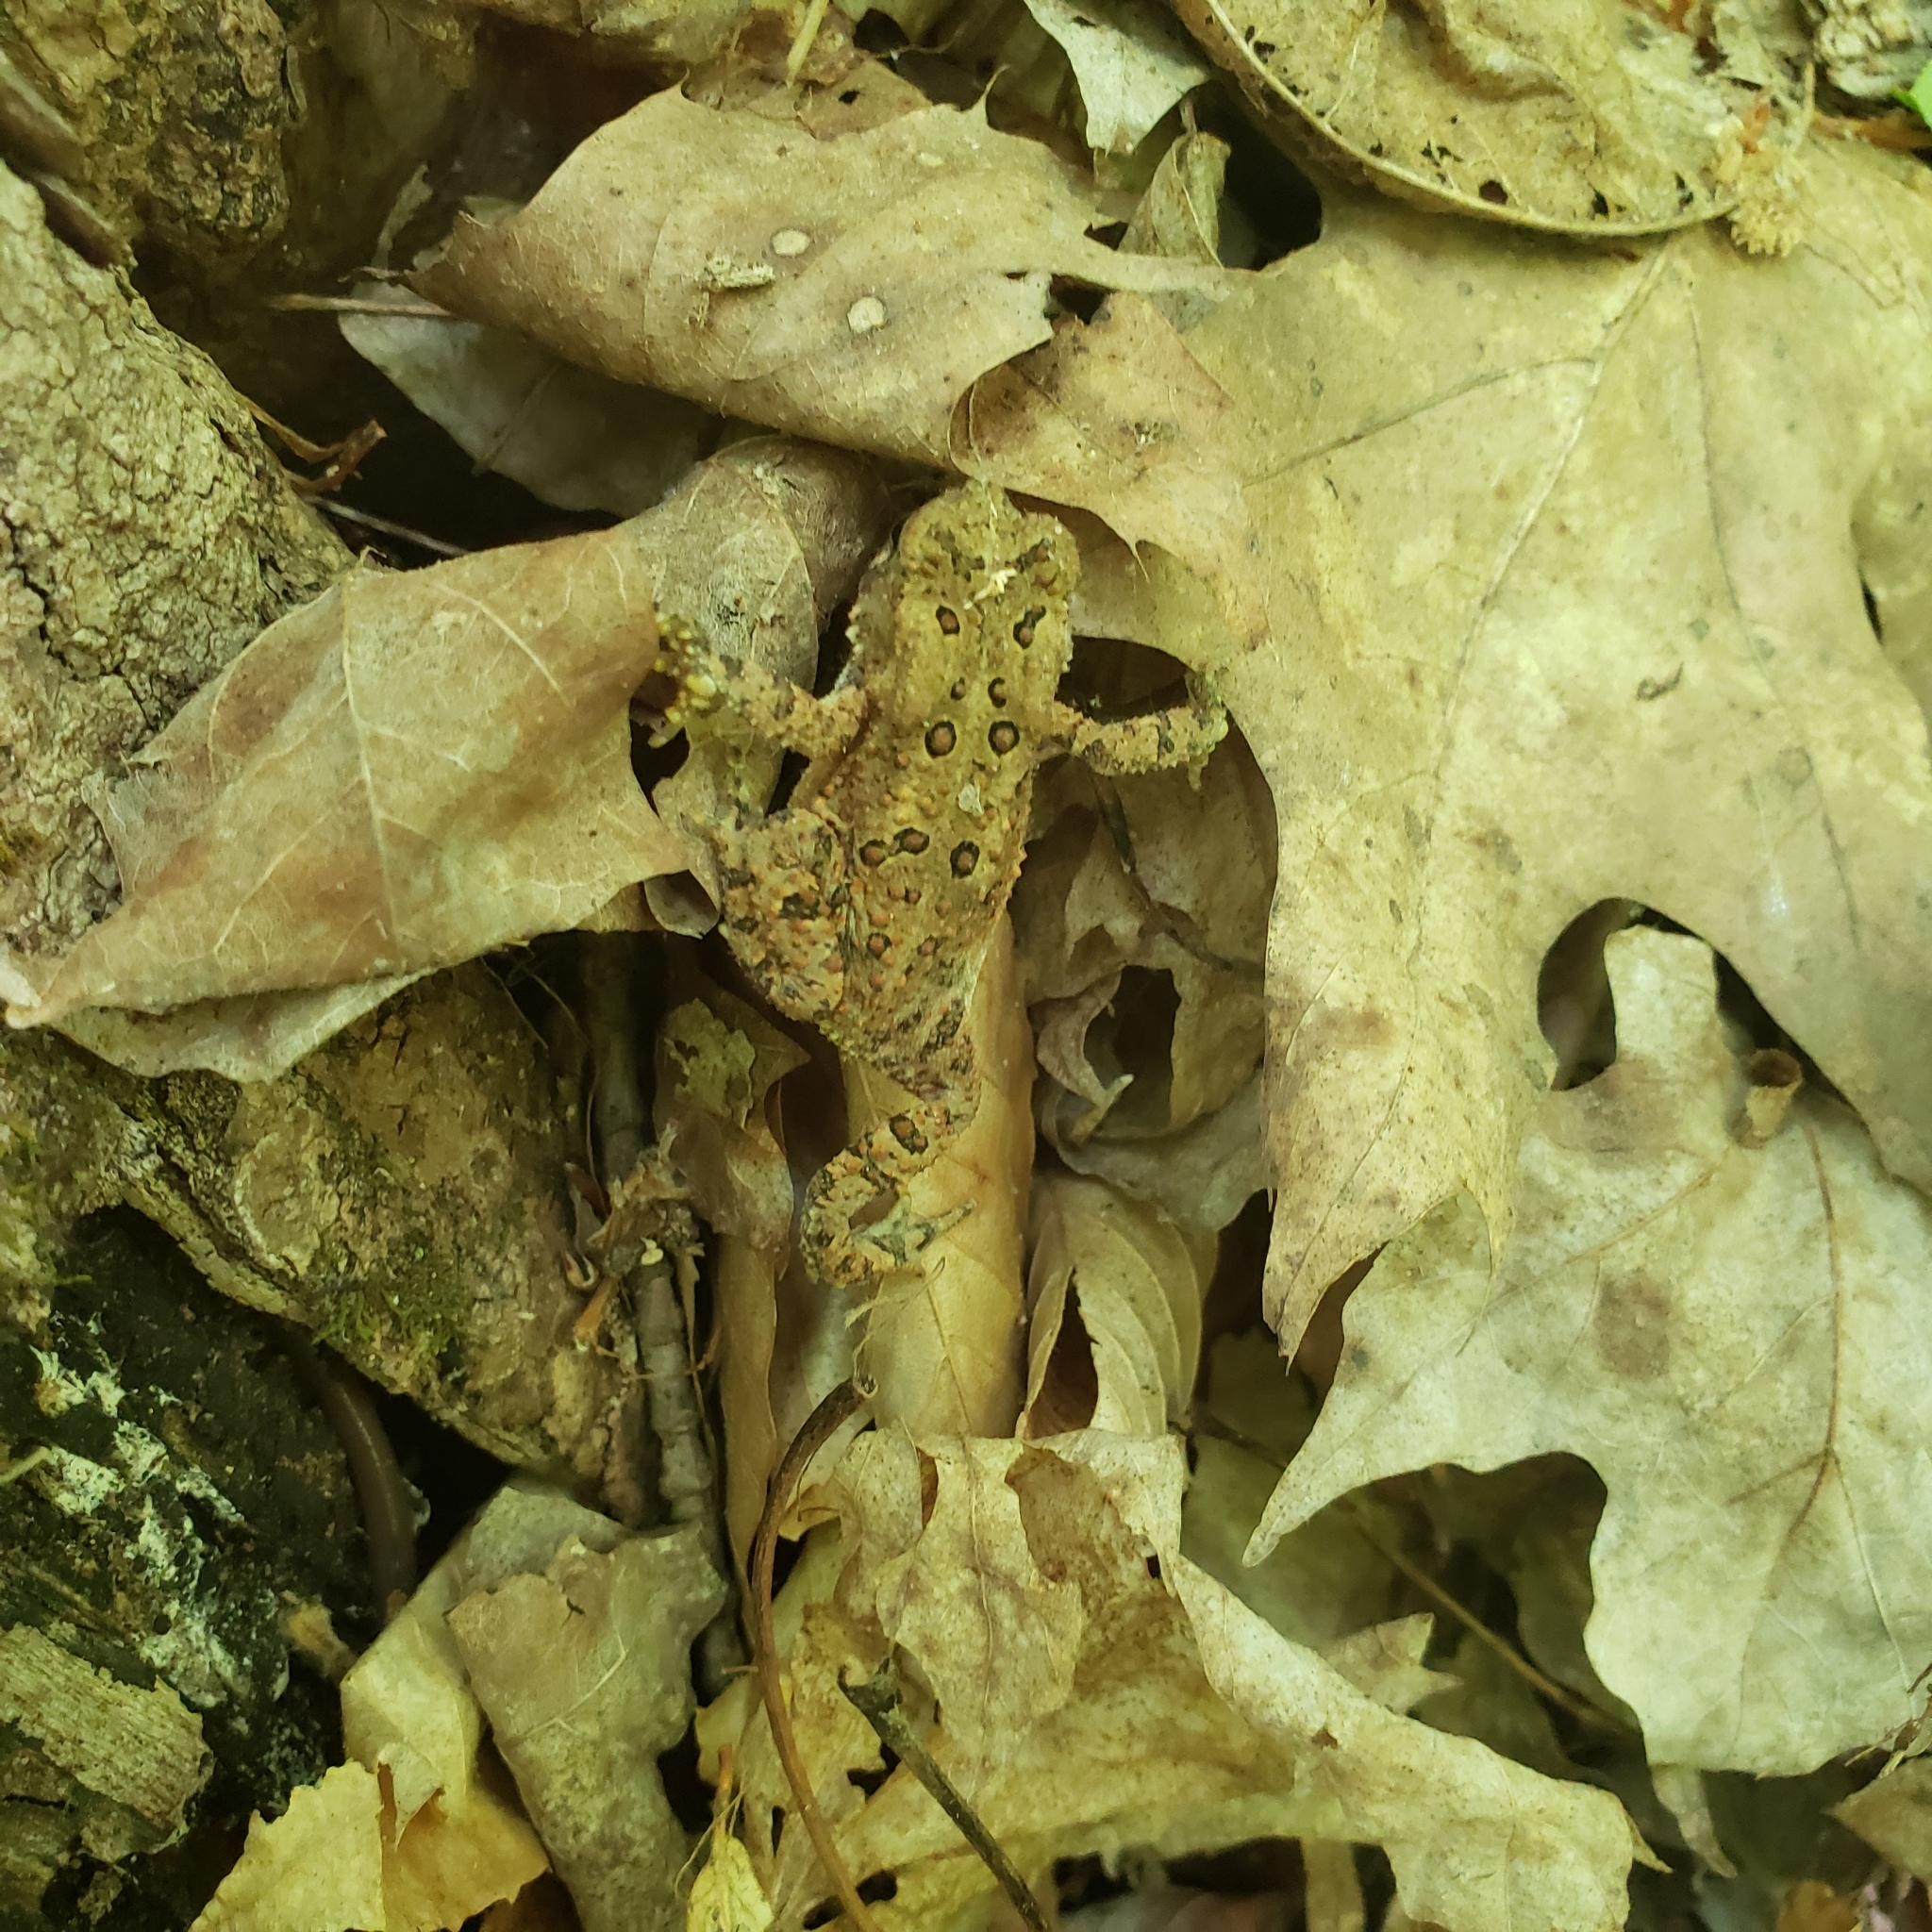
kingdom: Animalia
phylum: Chordata
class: Amphibia
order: Anura
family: Bufonidae
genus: Anaxyrus
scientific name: Anaxyrus americanus
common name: American toad
